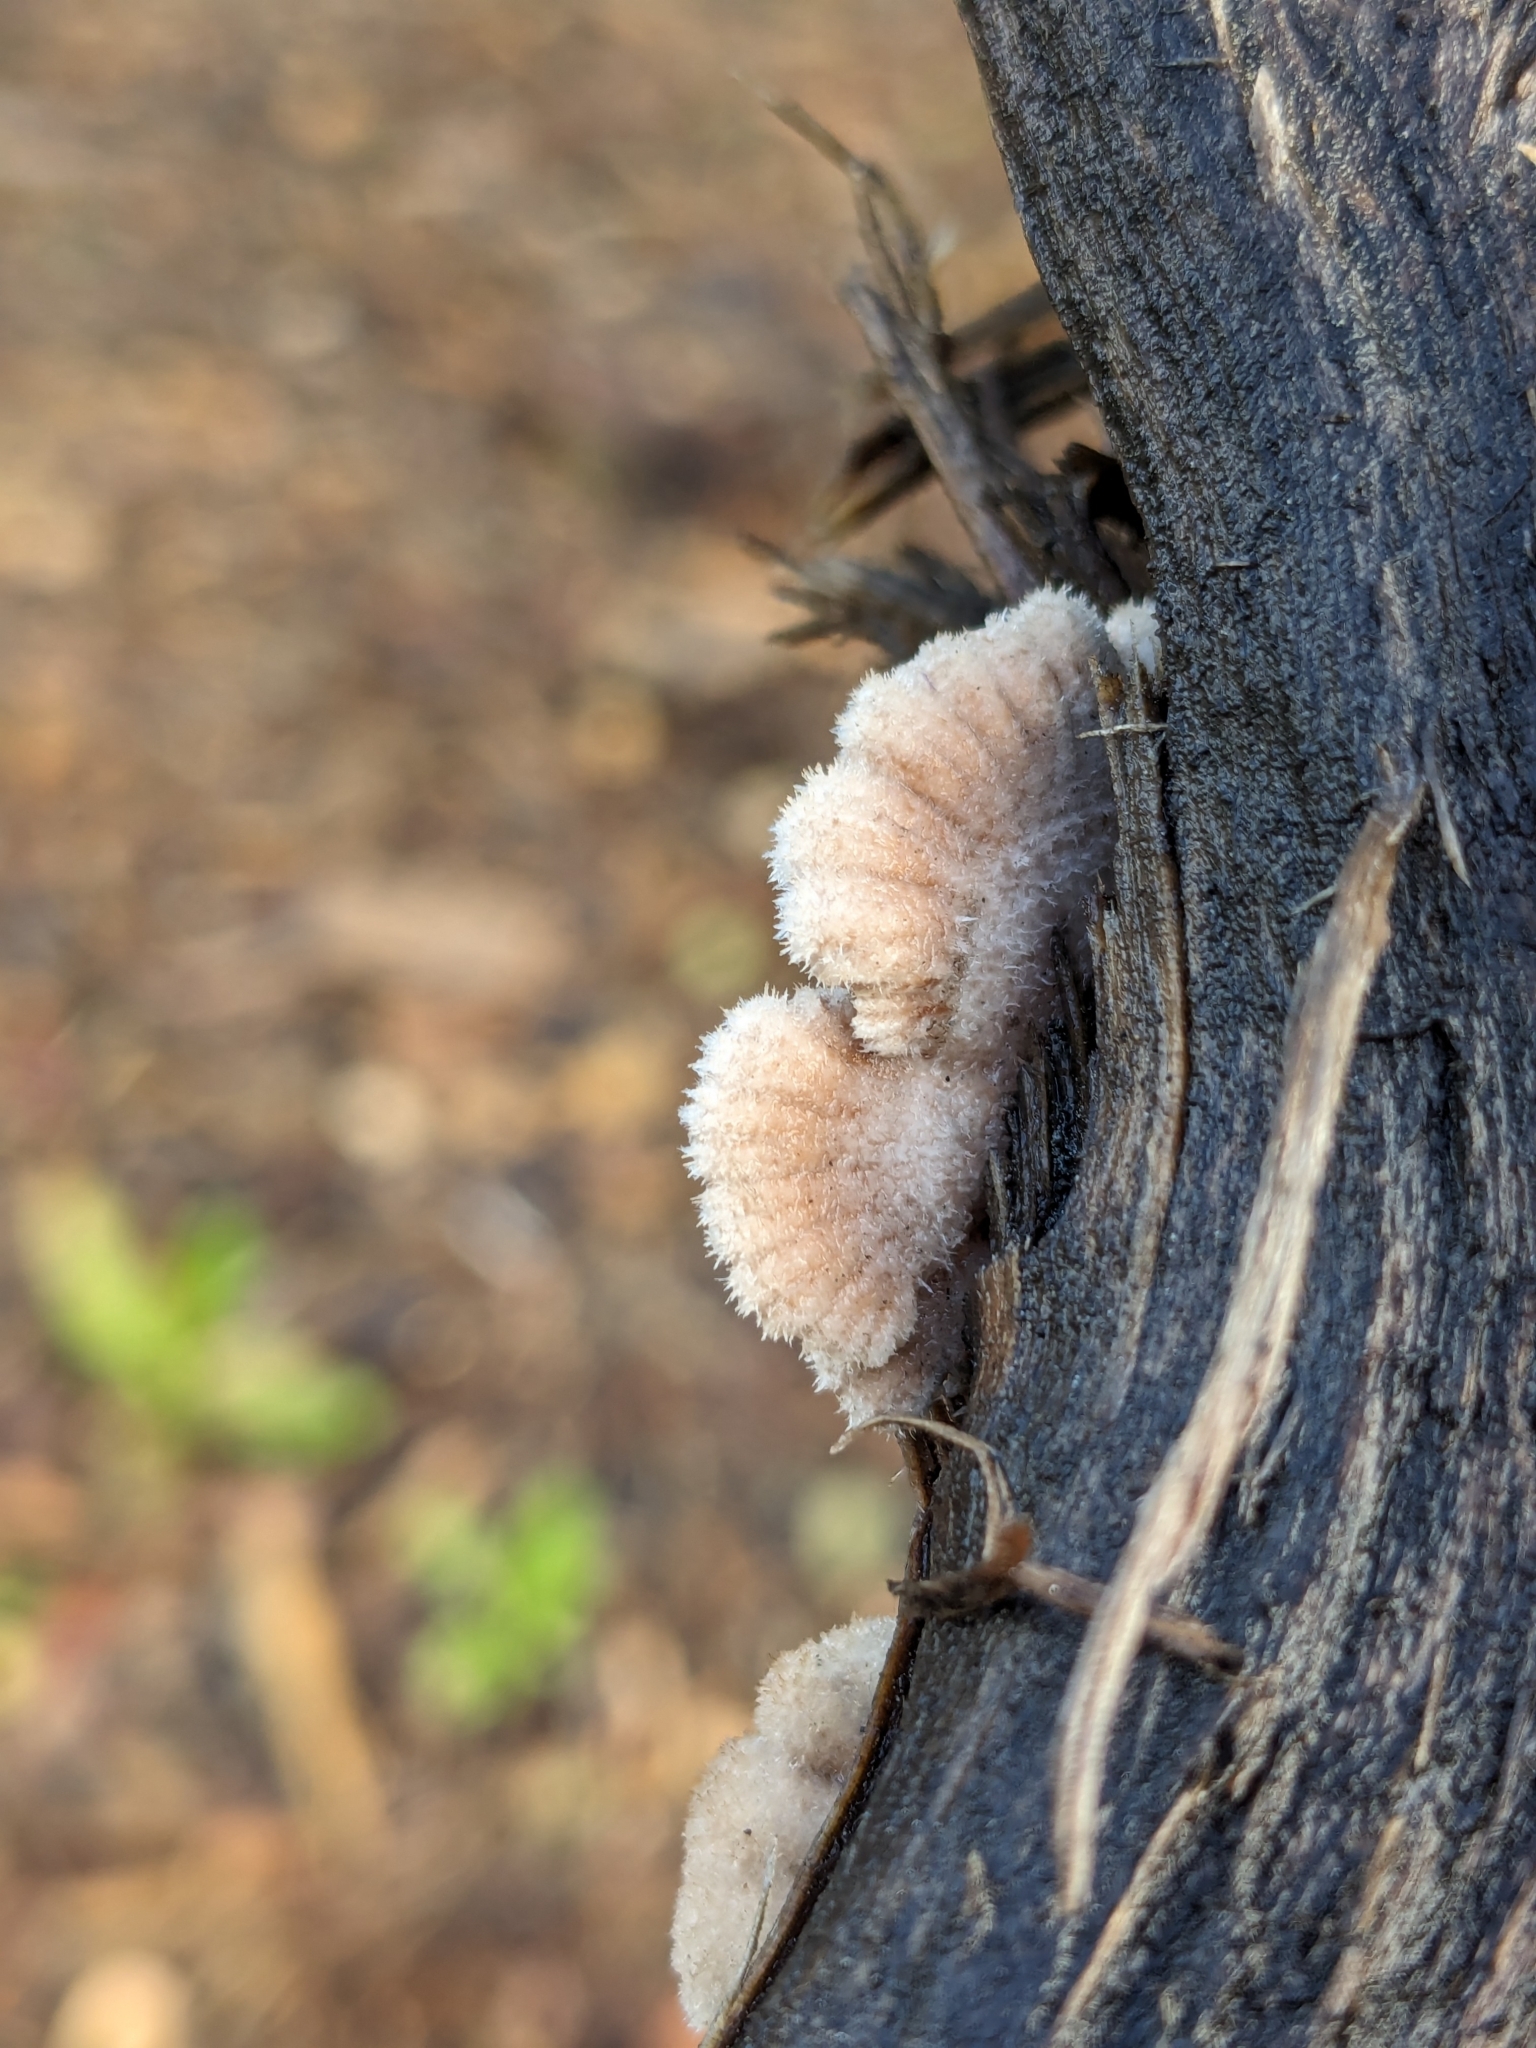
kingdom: Fungi
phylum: Basidiomycota
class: Agaricomycetes
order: Agaricales
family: Schizophyllaceae
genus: Schizophyllum
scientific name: Schizophyllum commune
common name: Common porecrust
